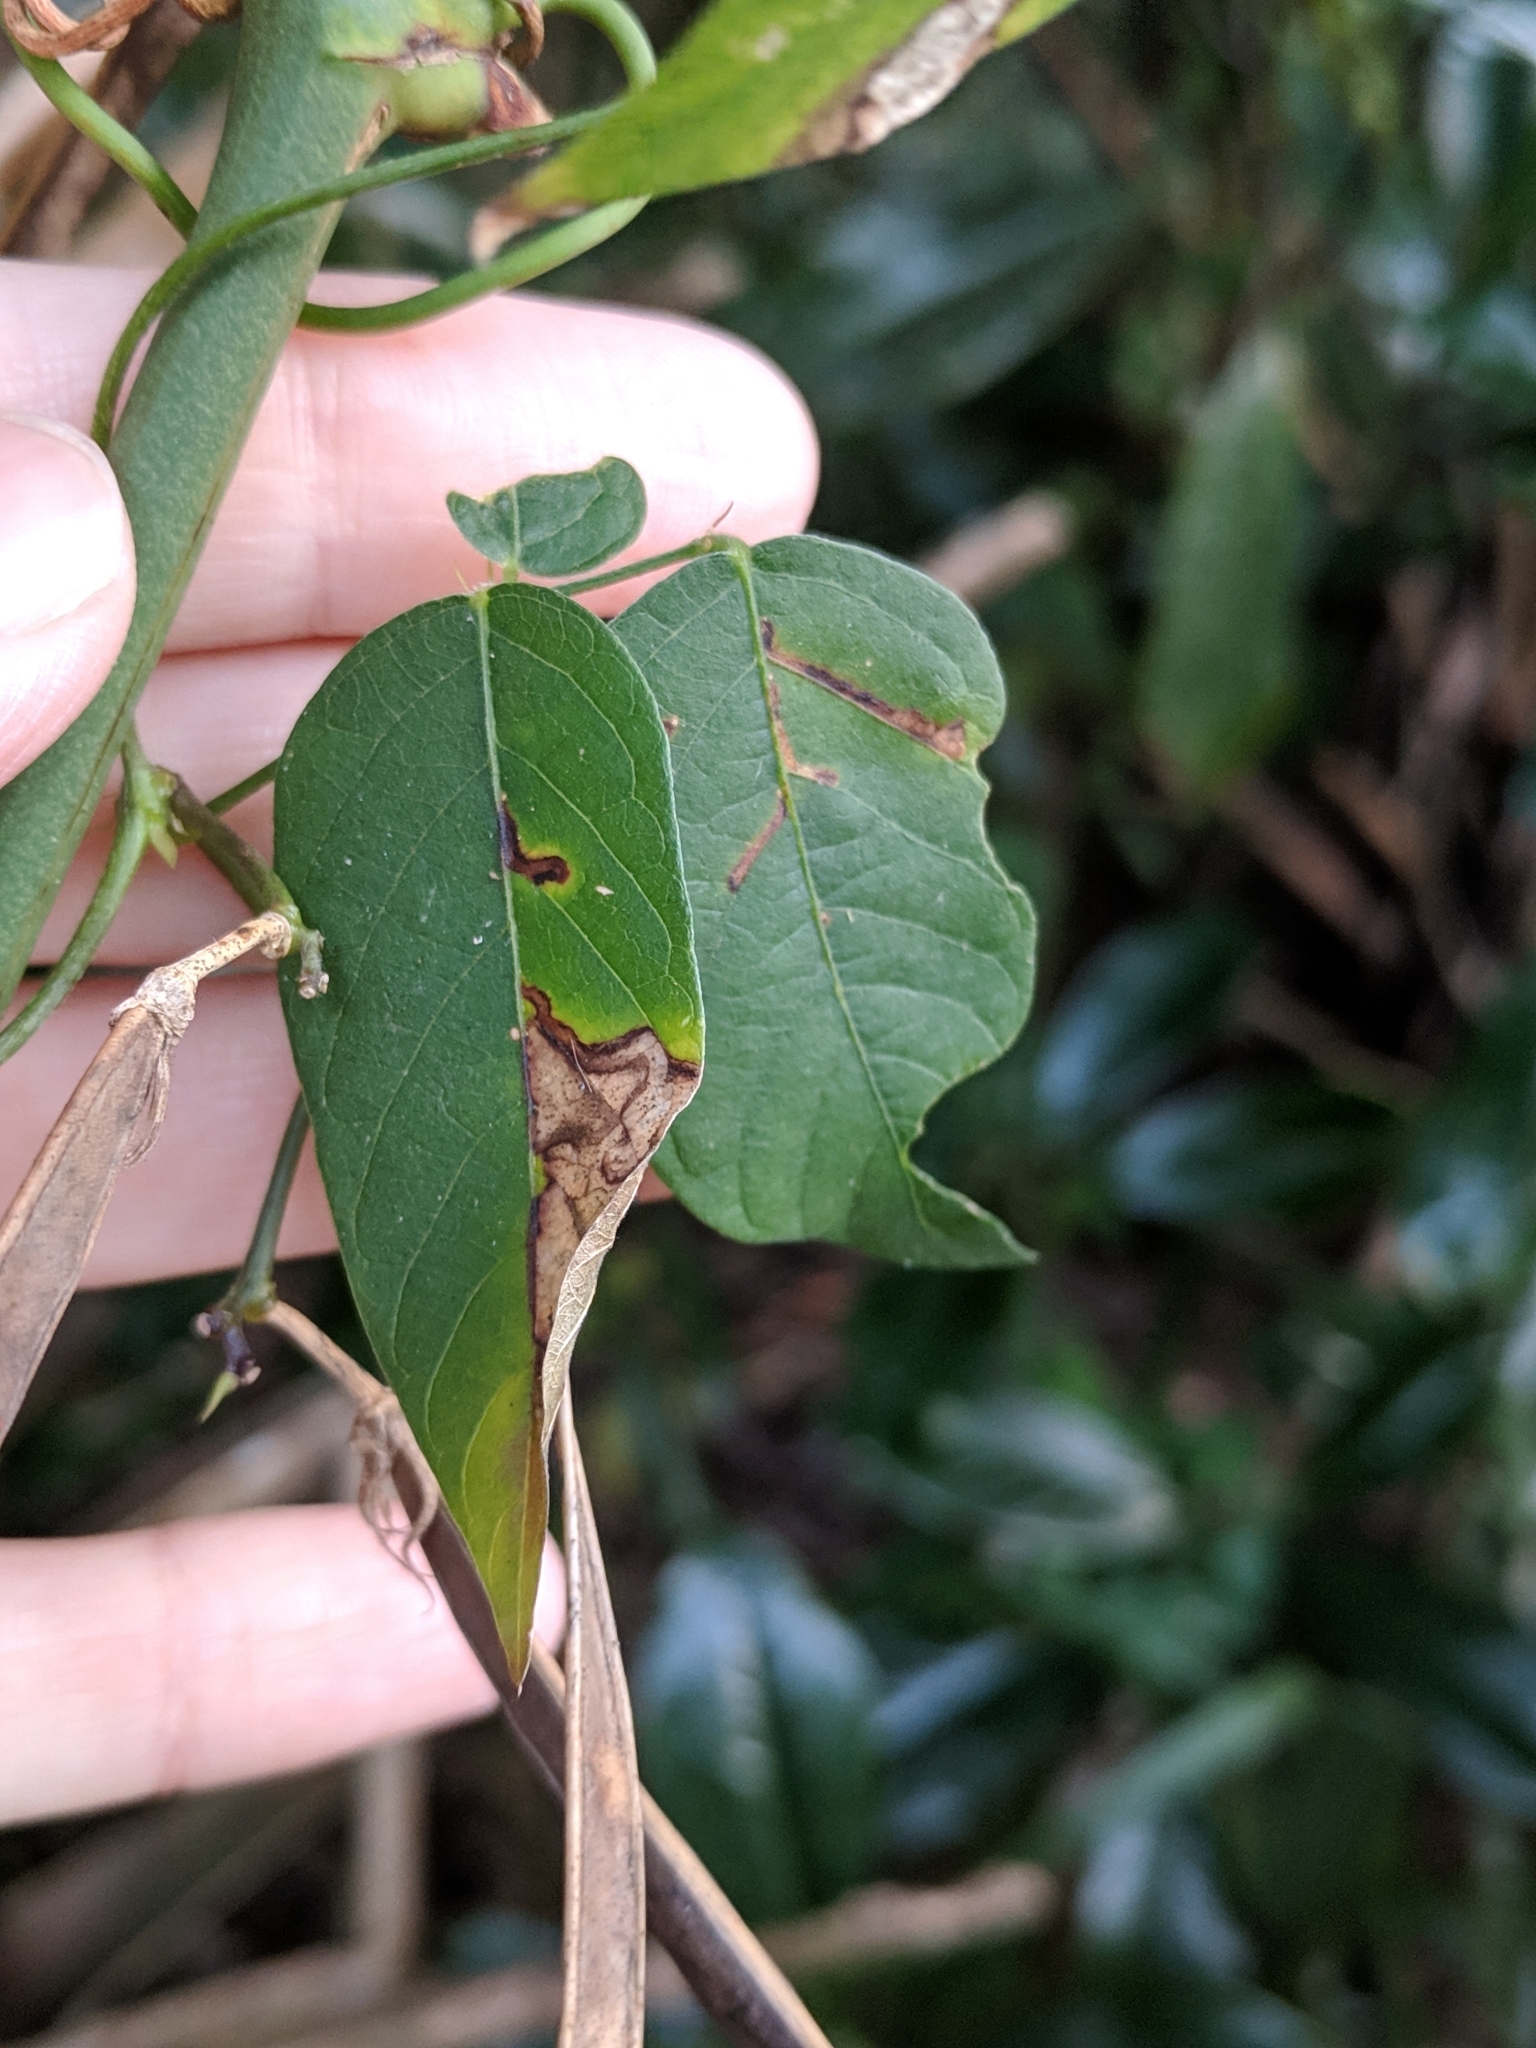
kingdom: Plantae
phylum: Tracheophyta
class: Magnoliopsida
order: Fabales
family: Fabaceae
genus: Centrosema
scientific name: Centrosema virginianum
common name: Butterfly-pea
